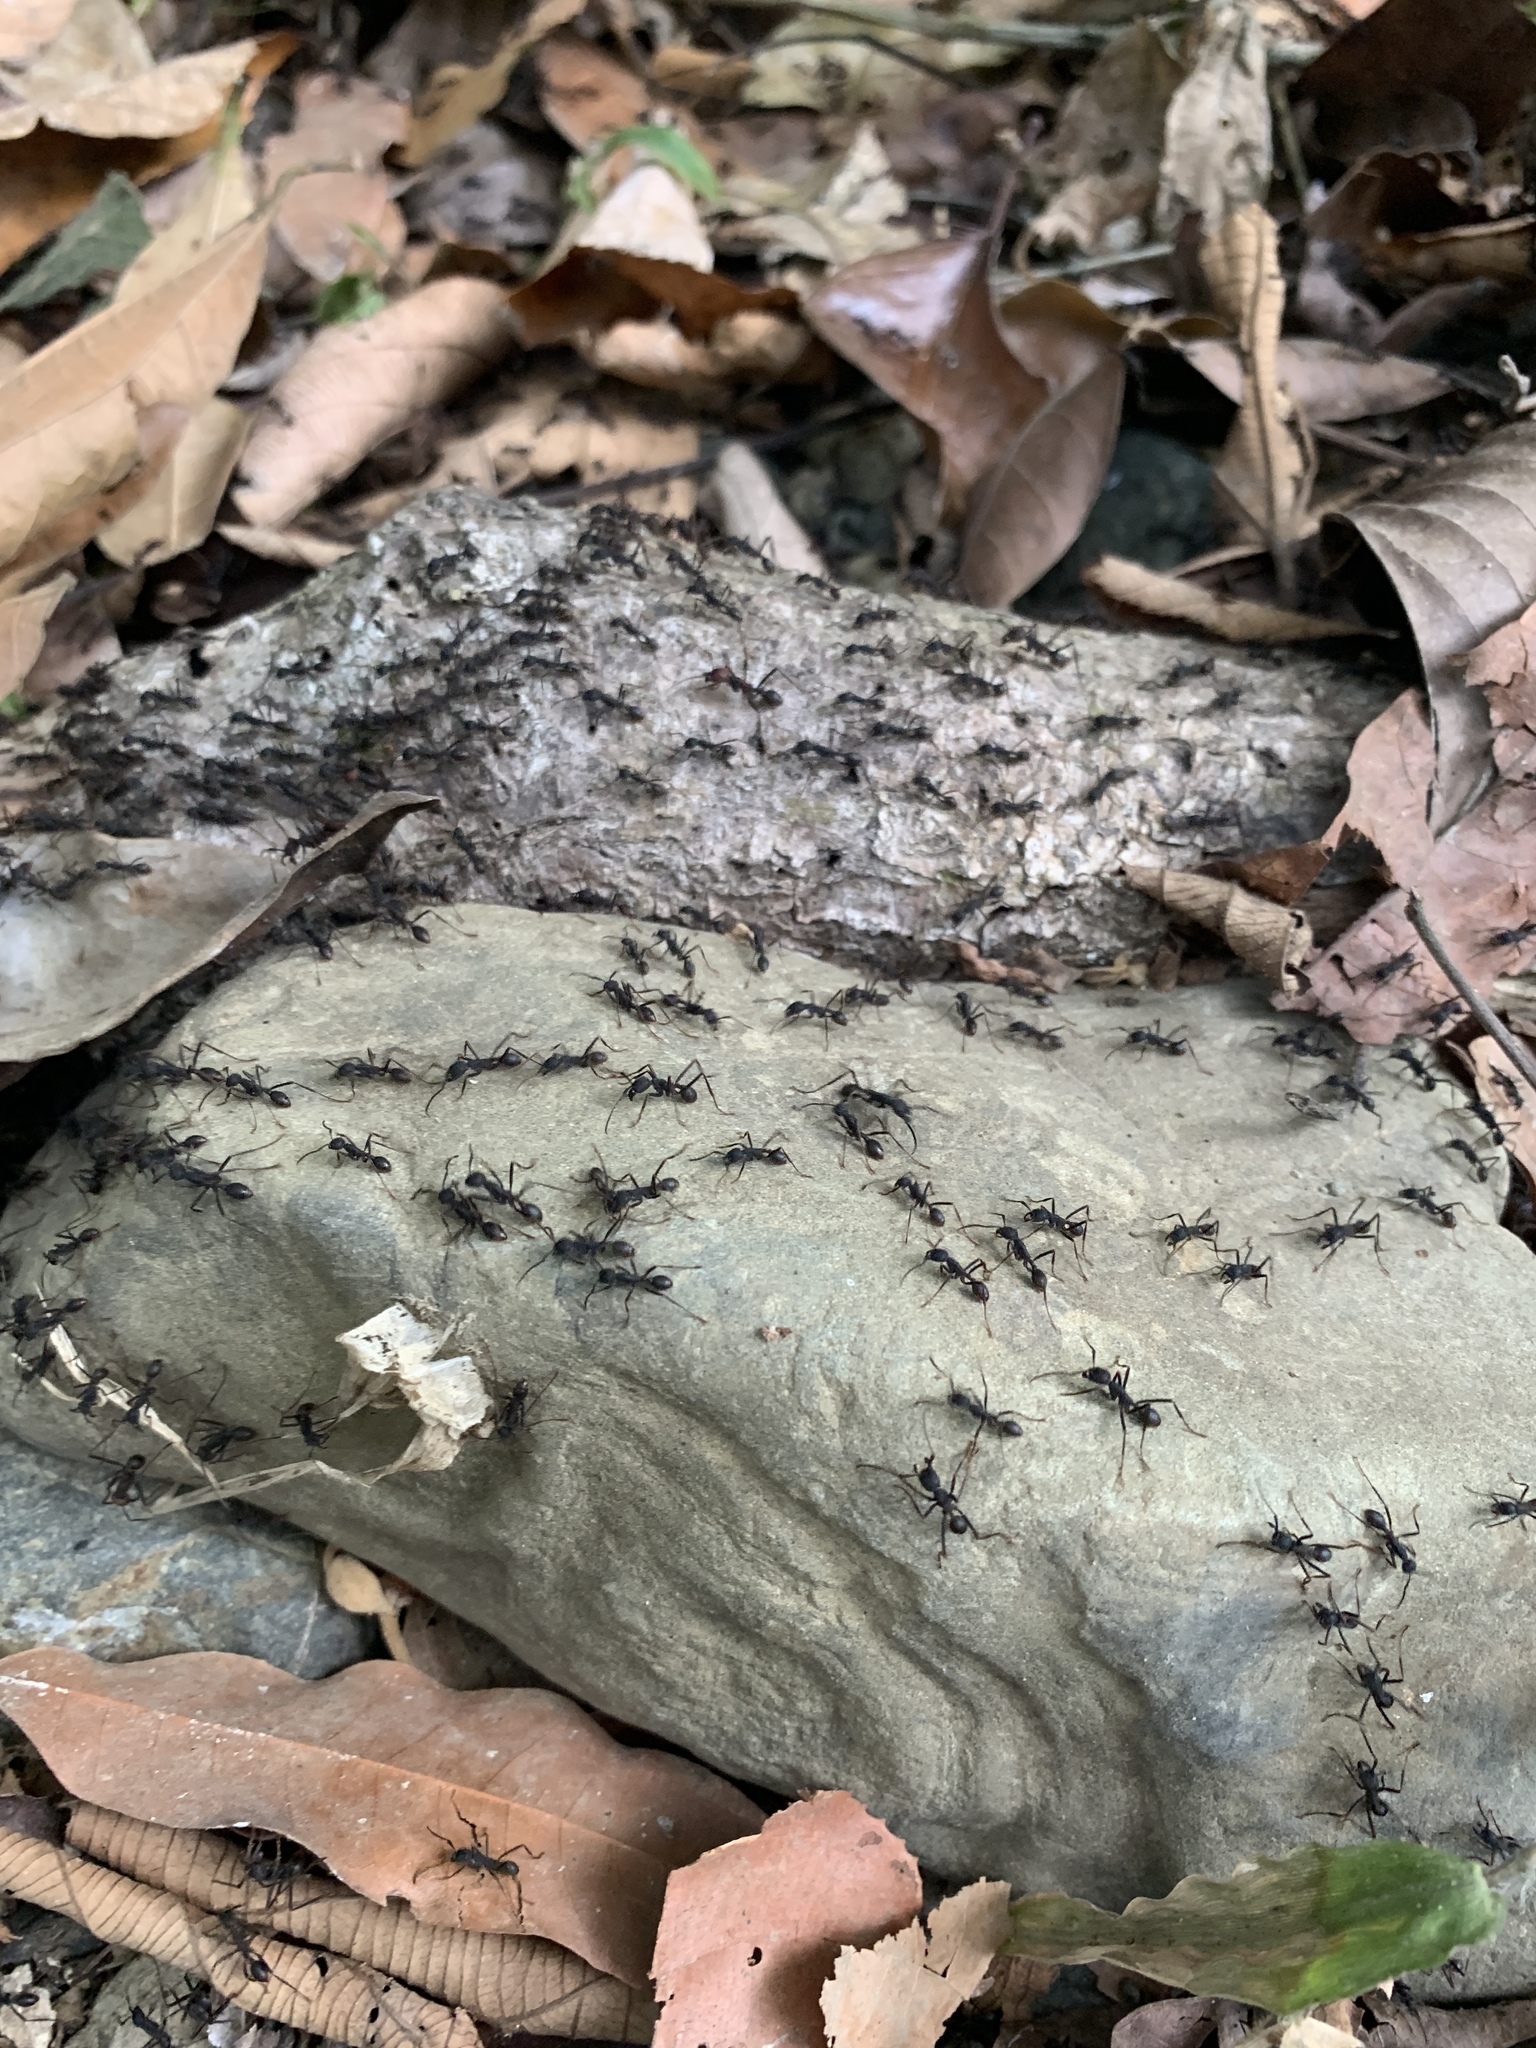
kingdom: Animalia
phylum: Arthropoda
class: Insecta
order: Hymenoptera
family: Formicidae
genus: Eciton
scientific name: Eciton burchellii
